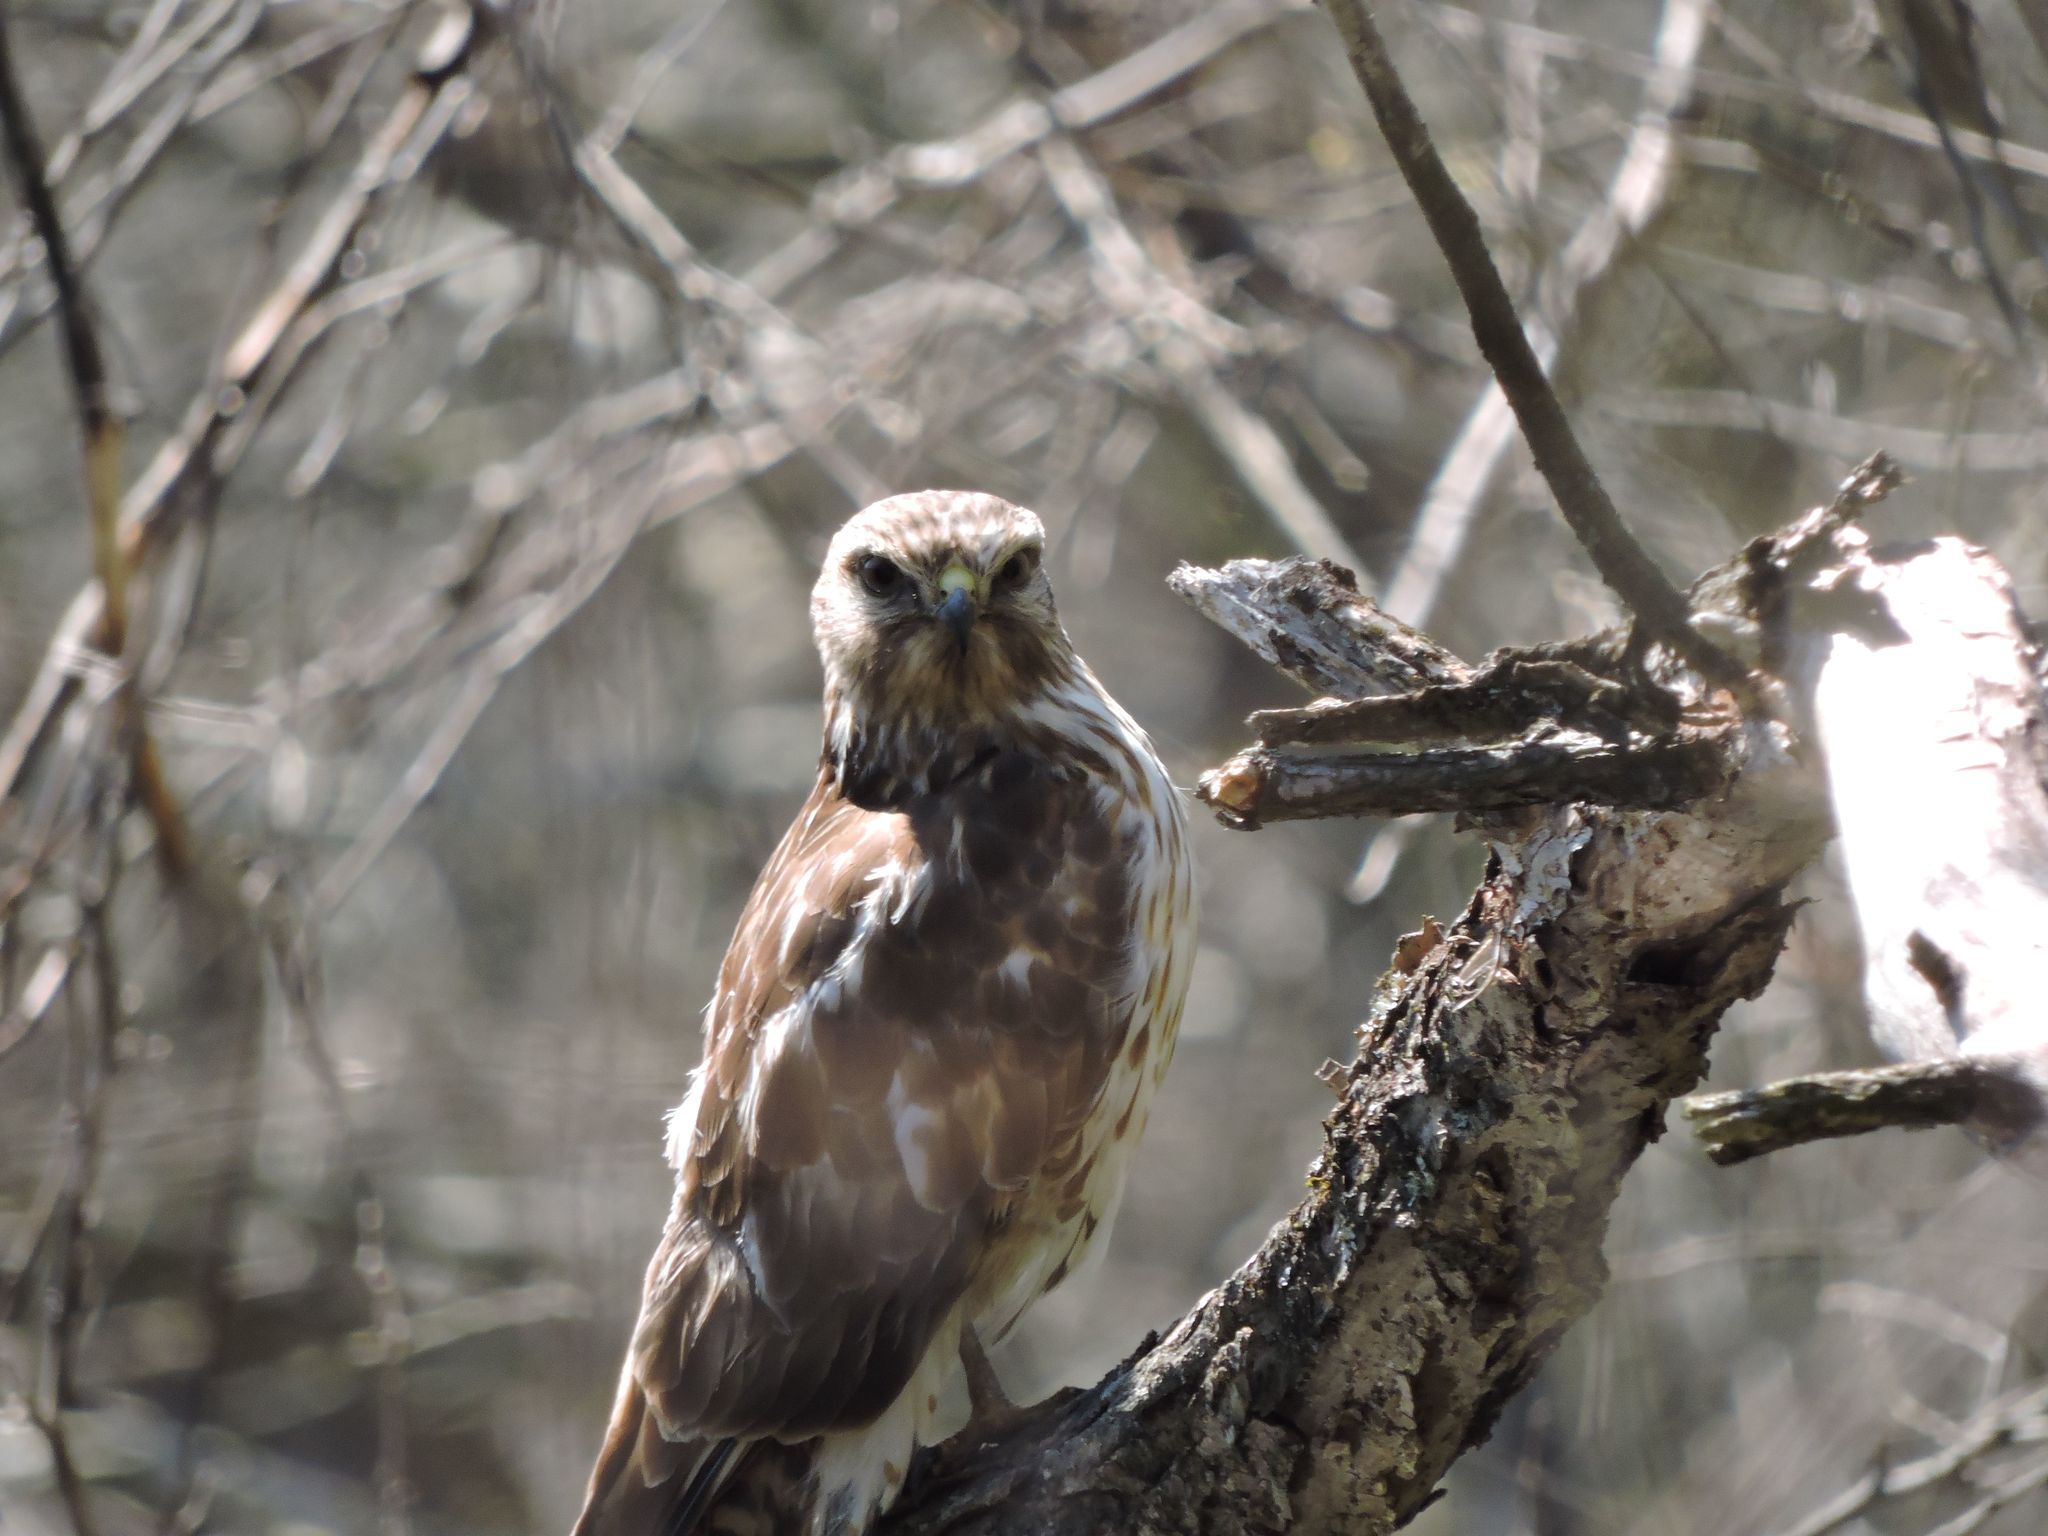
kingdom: Animalia
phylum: Chordata
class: Aves
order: Accipitriformes
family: Accipitridae
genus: Buteo
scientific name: Buteo lineatus
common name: Red-shouldered hawk
